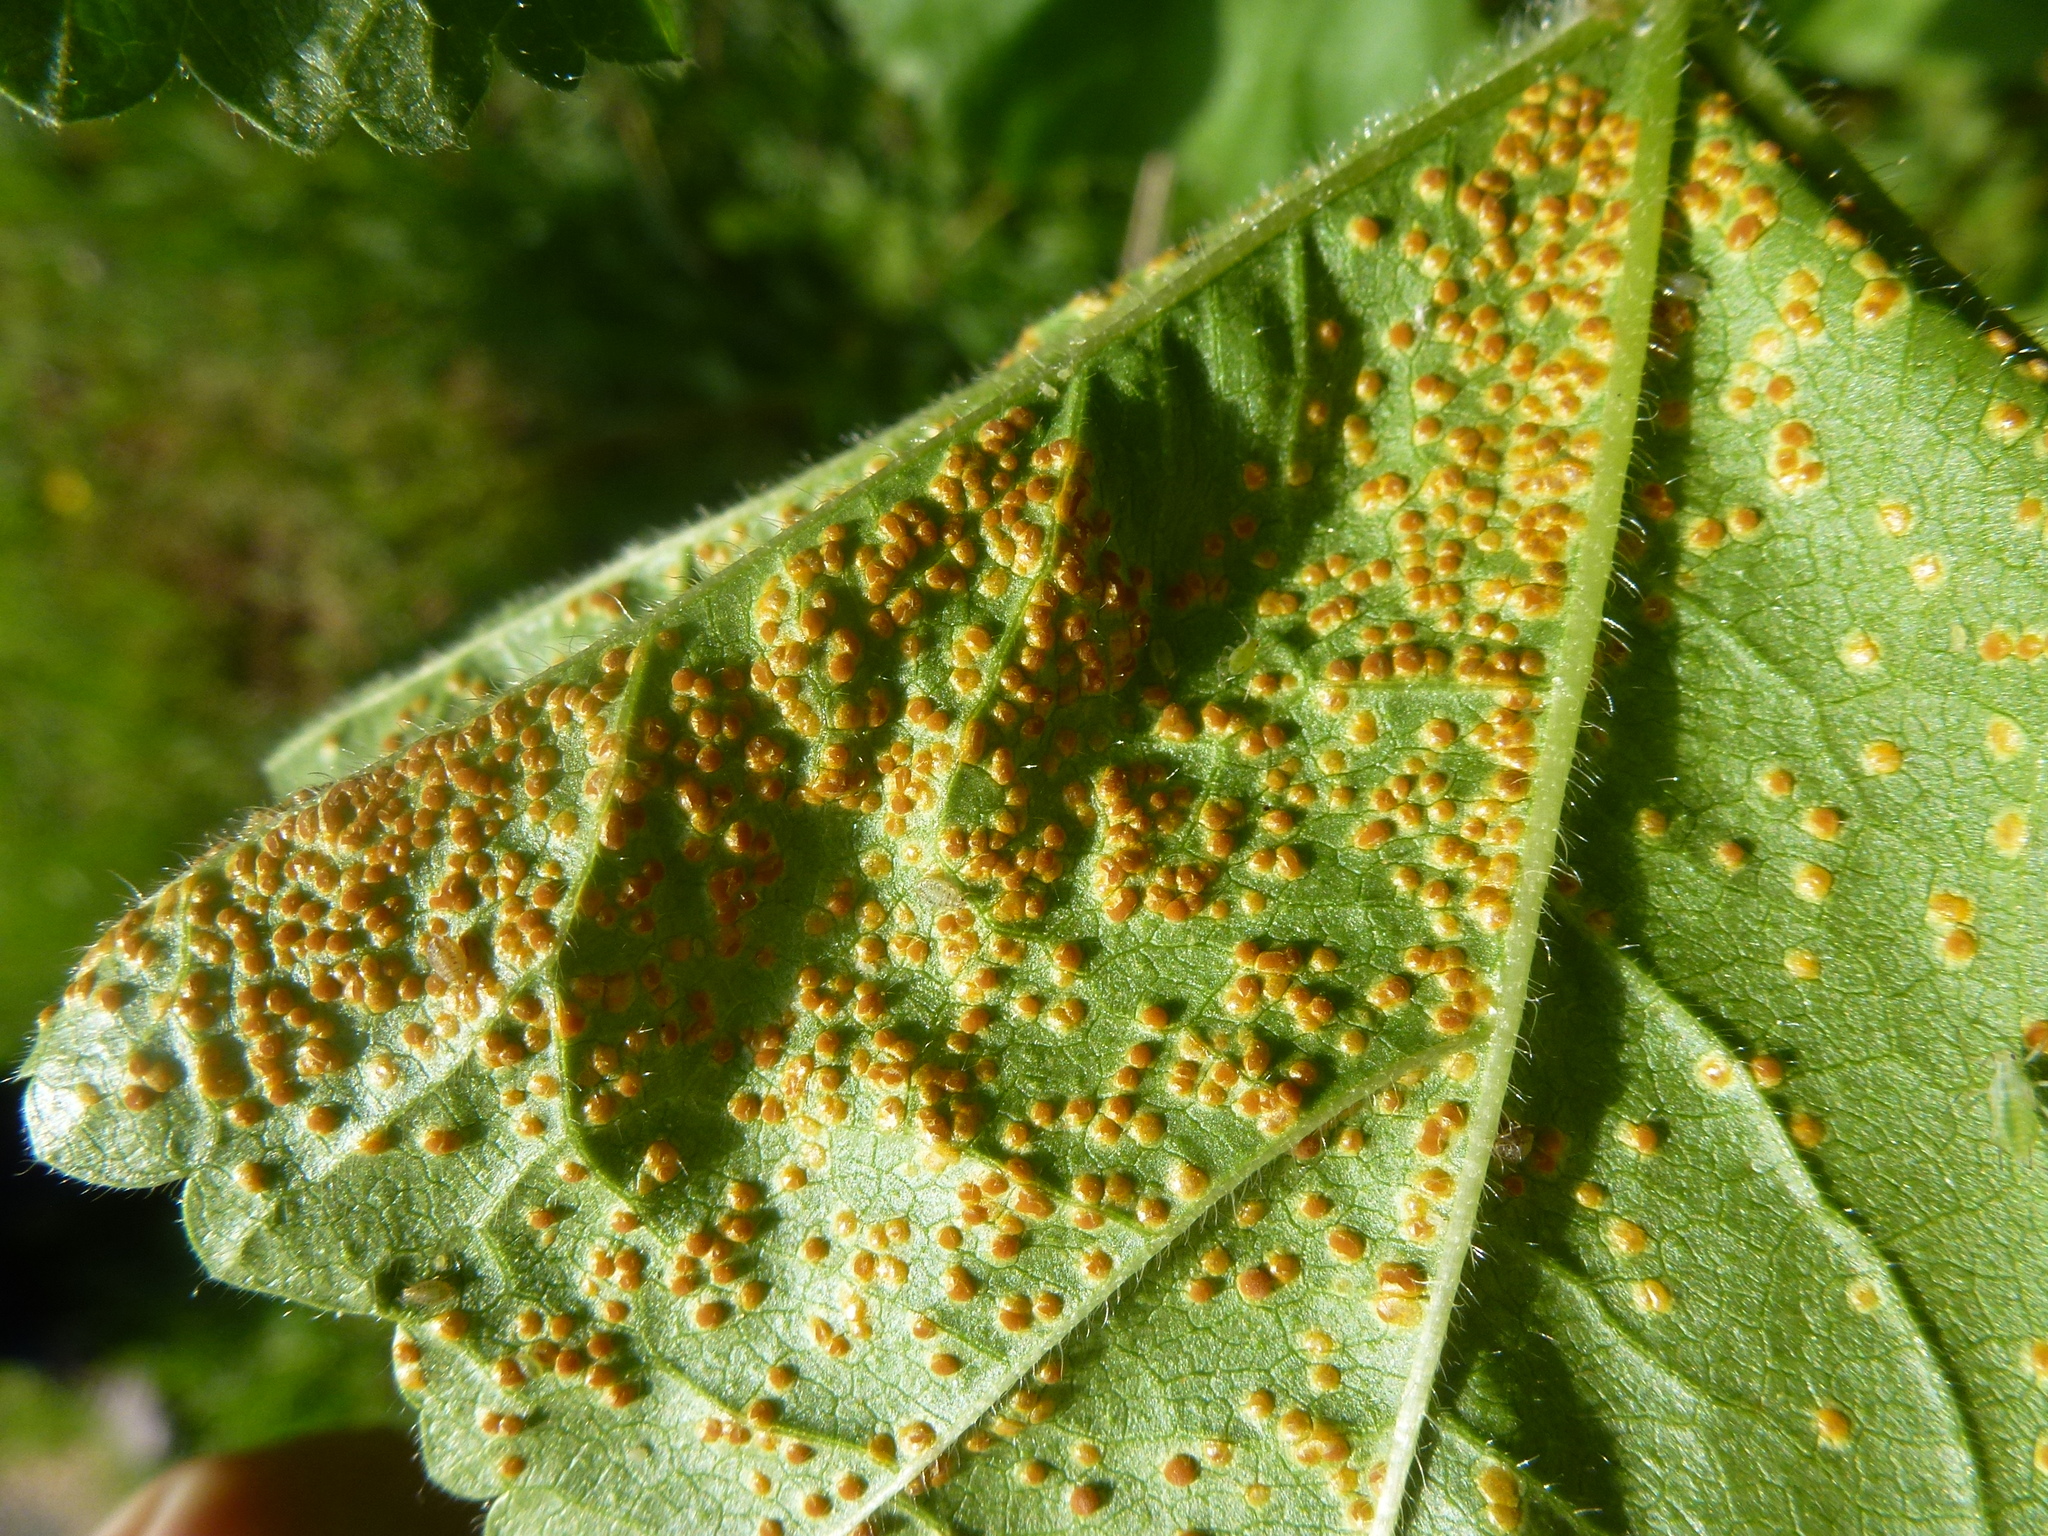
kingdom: Fungi
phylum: Basidiomycota
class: Pucciniomycetes
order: Pucciniales
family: Pucciniaceae
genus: Puccinia
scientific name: Puccinia malvacearum
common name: Hollyhock rust
